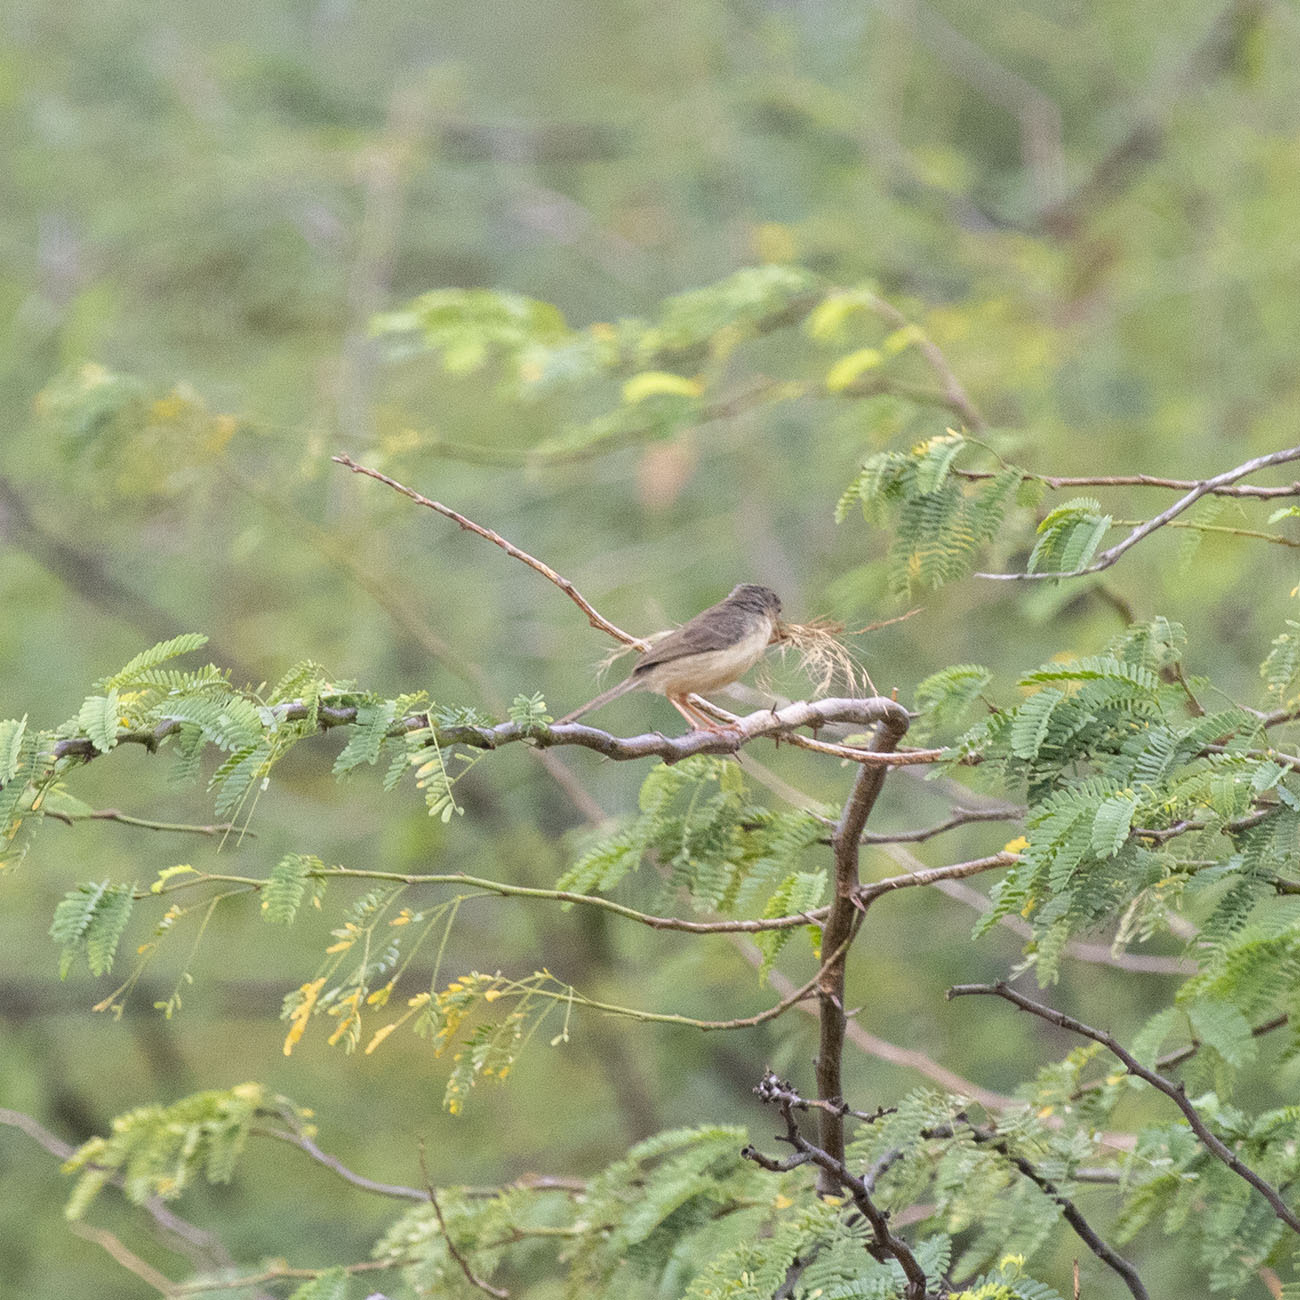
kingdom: Animalia
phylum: Chordata
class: Aves
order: Passeriformes
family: Cisticolidae
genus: Prinia
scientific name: Prinia sylvatica
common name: Jungle prinia
